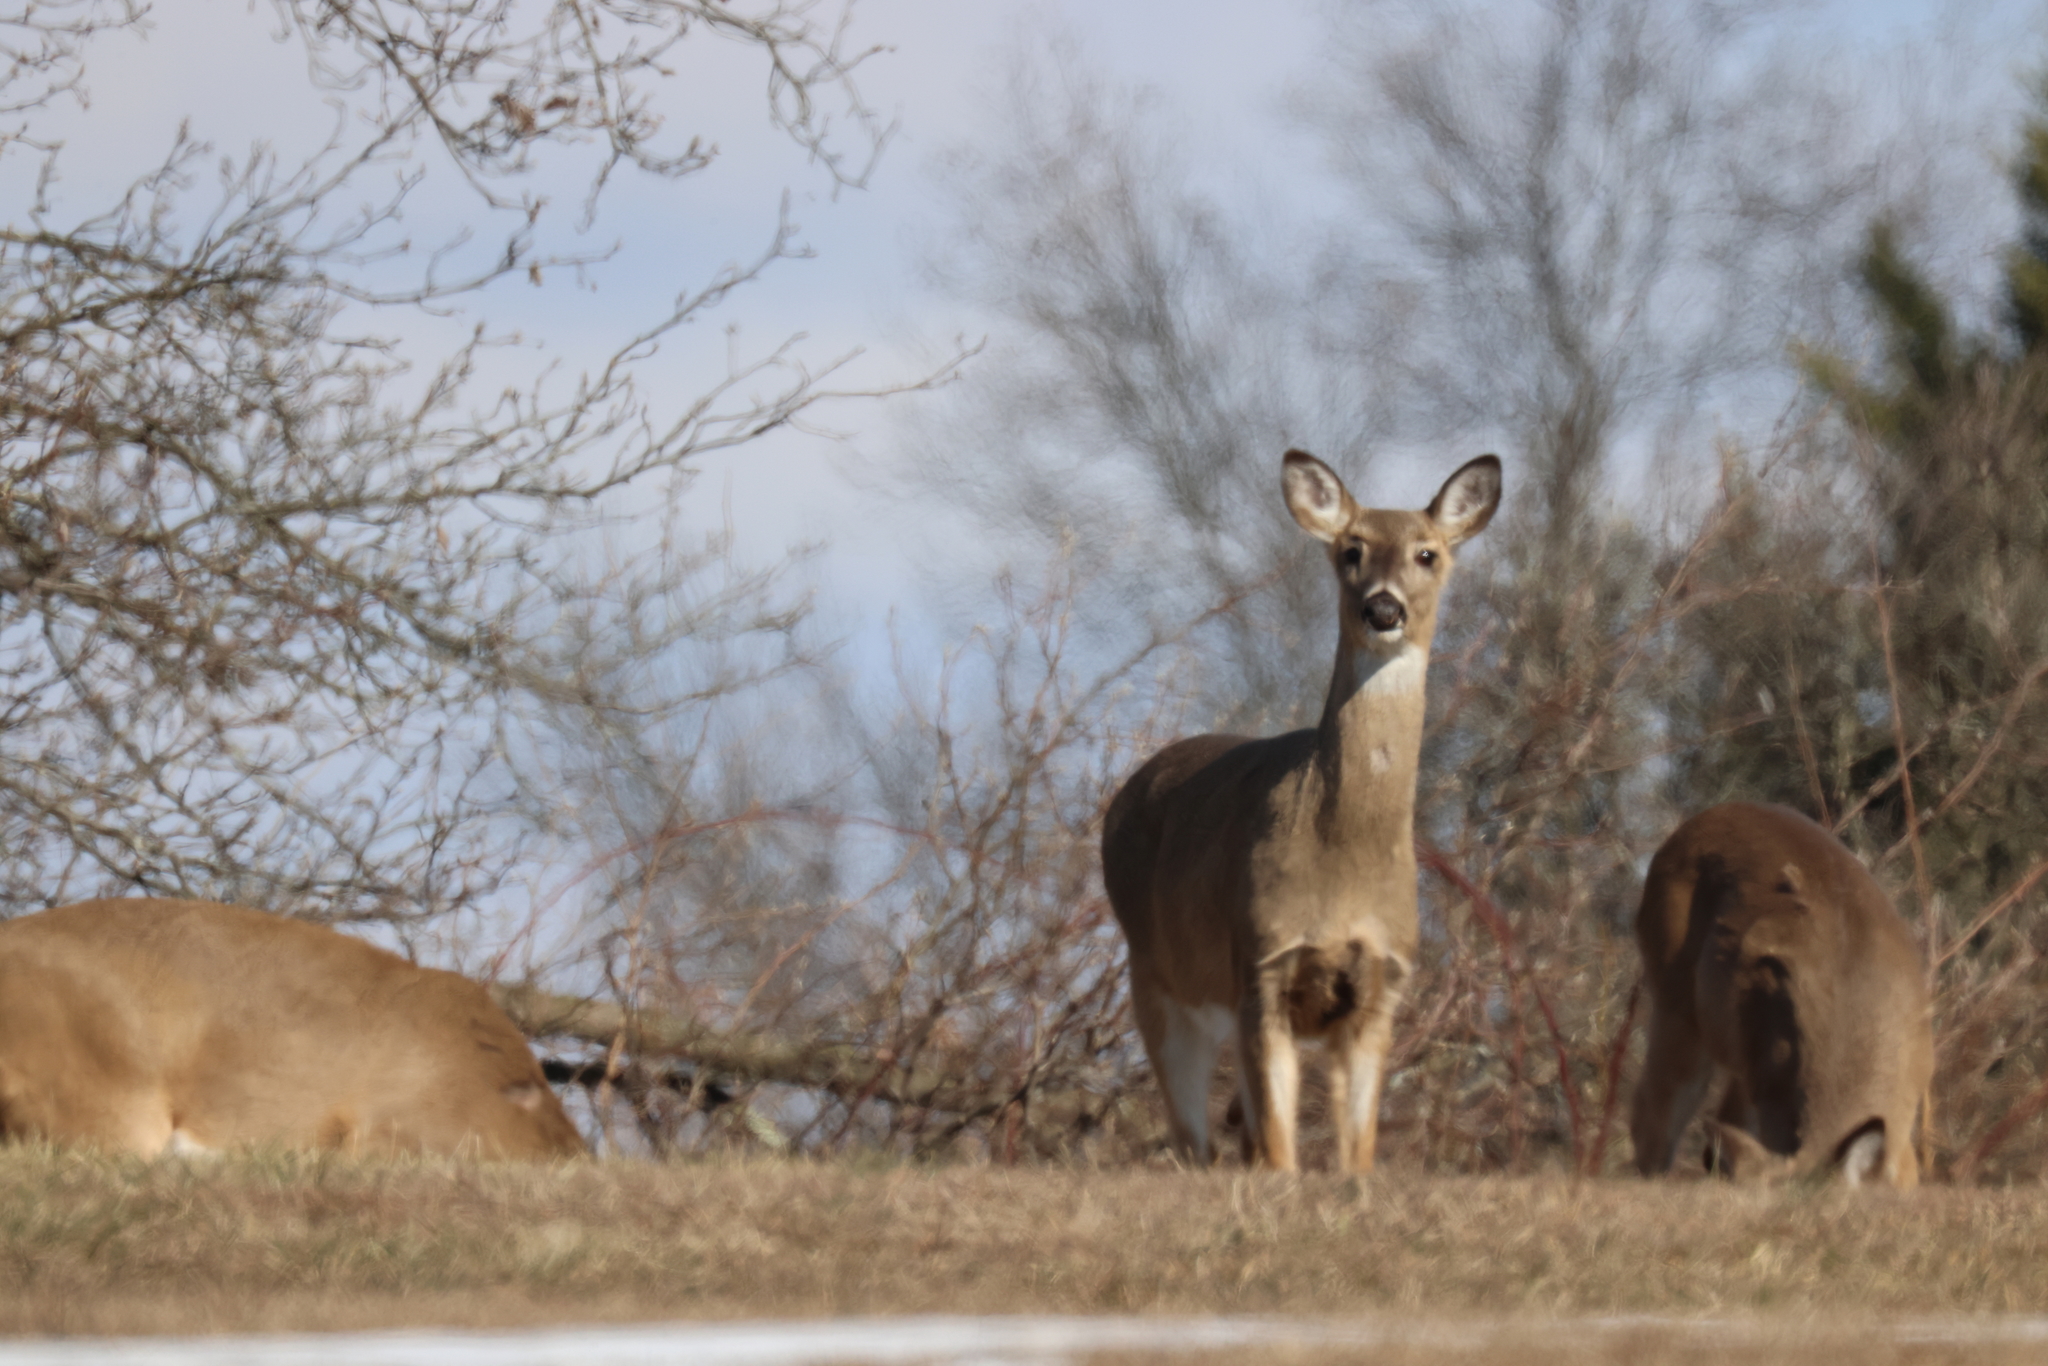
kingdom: Animalia
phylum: Chordata
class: Mammalia
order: Artiodactyla
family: Cervidae
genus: Odocoileus
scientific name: Odocoileus virginianus
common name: White-tailed deer
